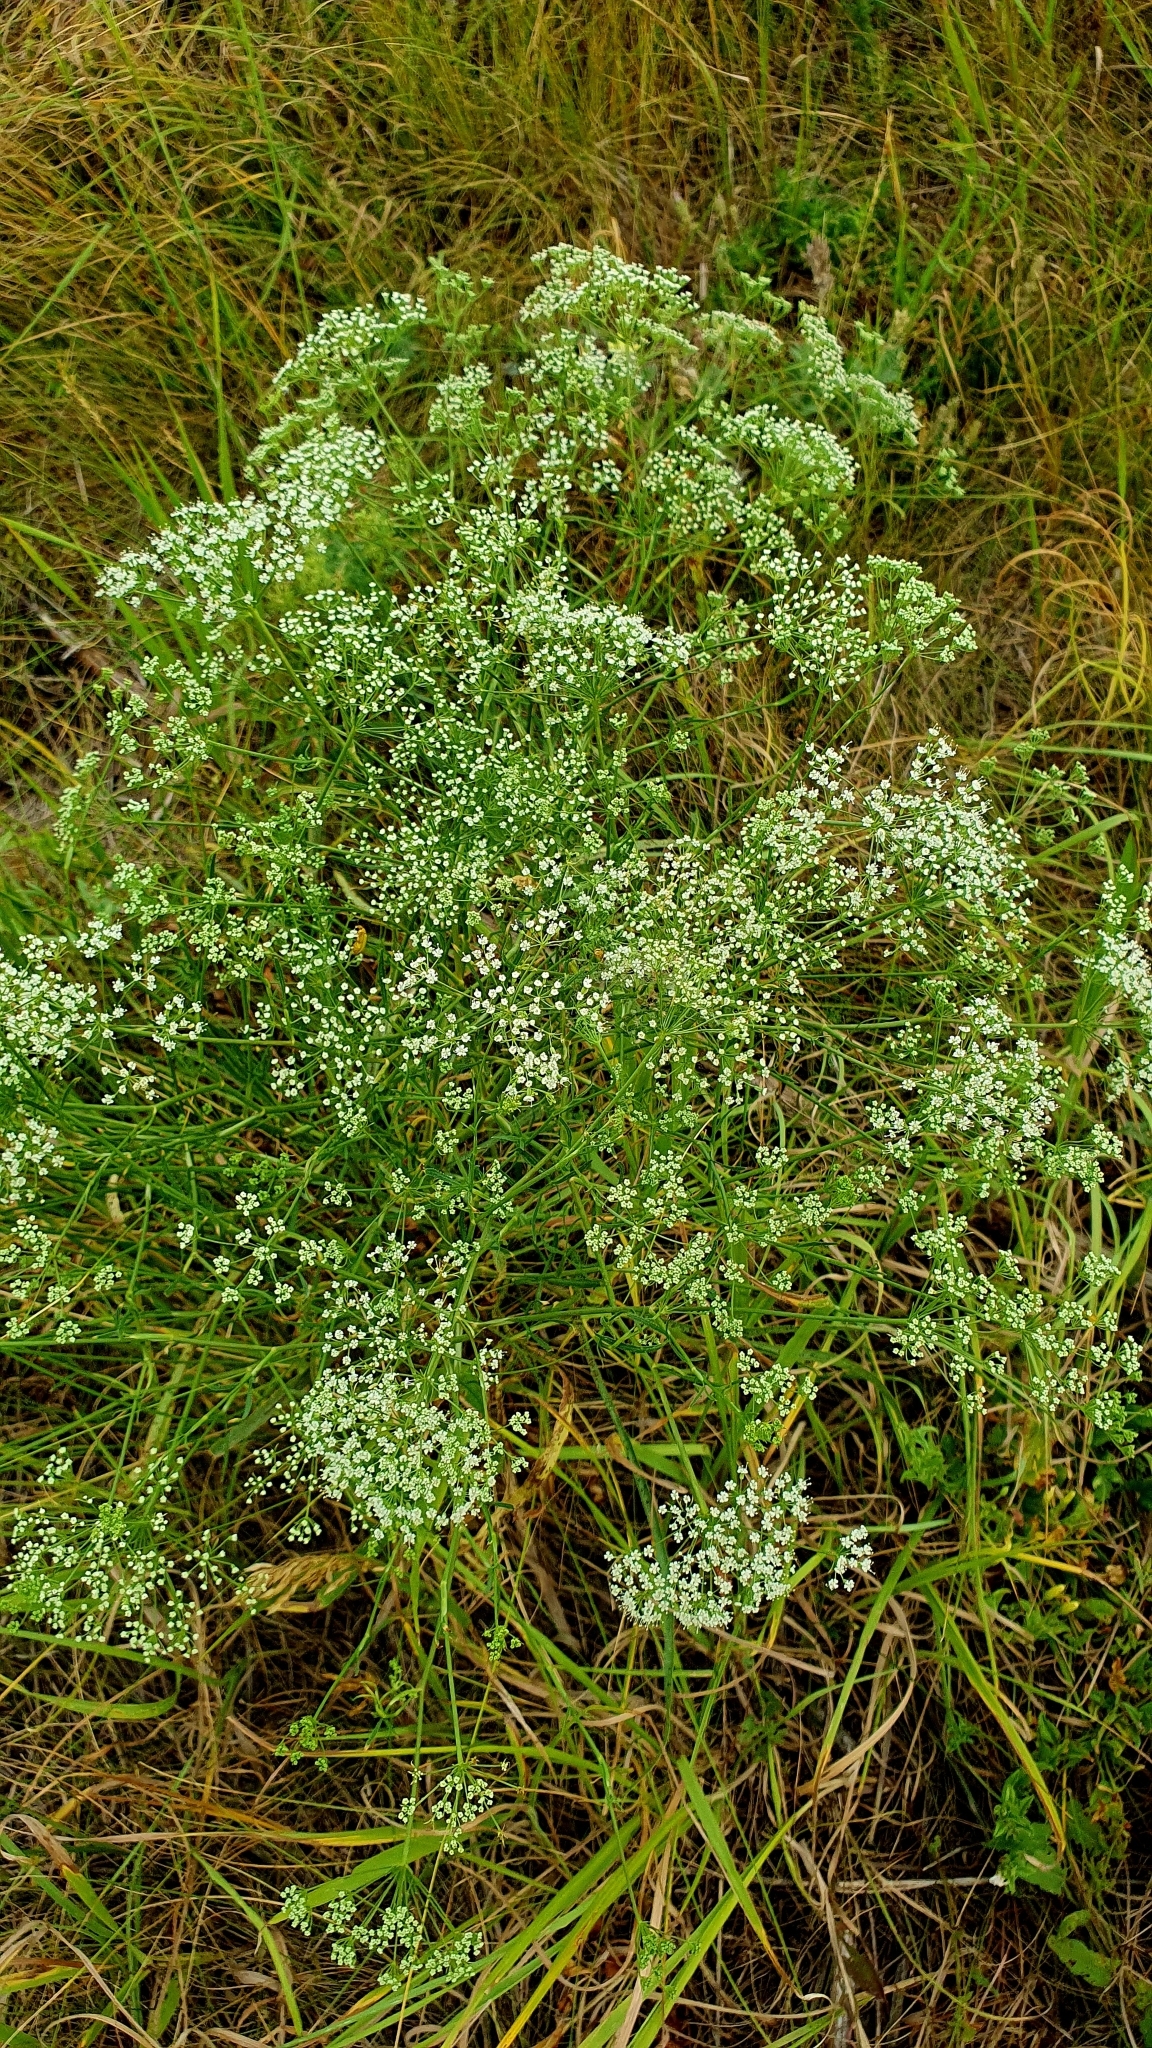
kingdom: Plantae
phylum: Tracheophyta
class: Magnoliopsida
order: Apiales
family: Apiaceae
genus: Falcaria
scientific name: Falcaria vulgaris
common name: Longleaf
